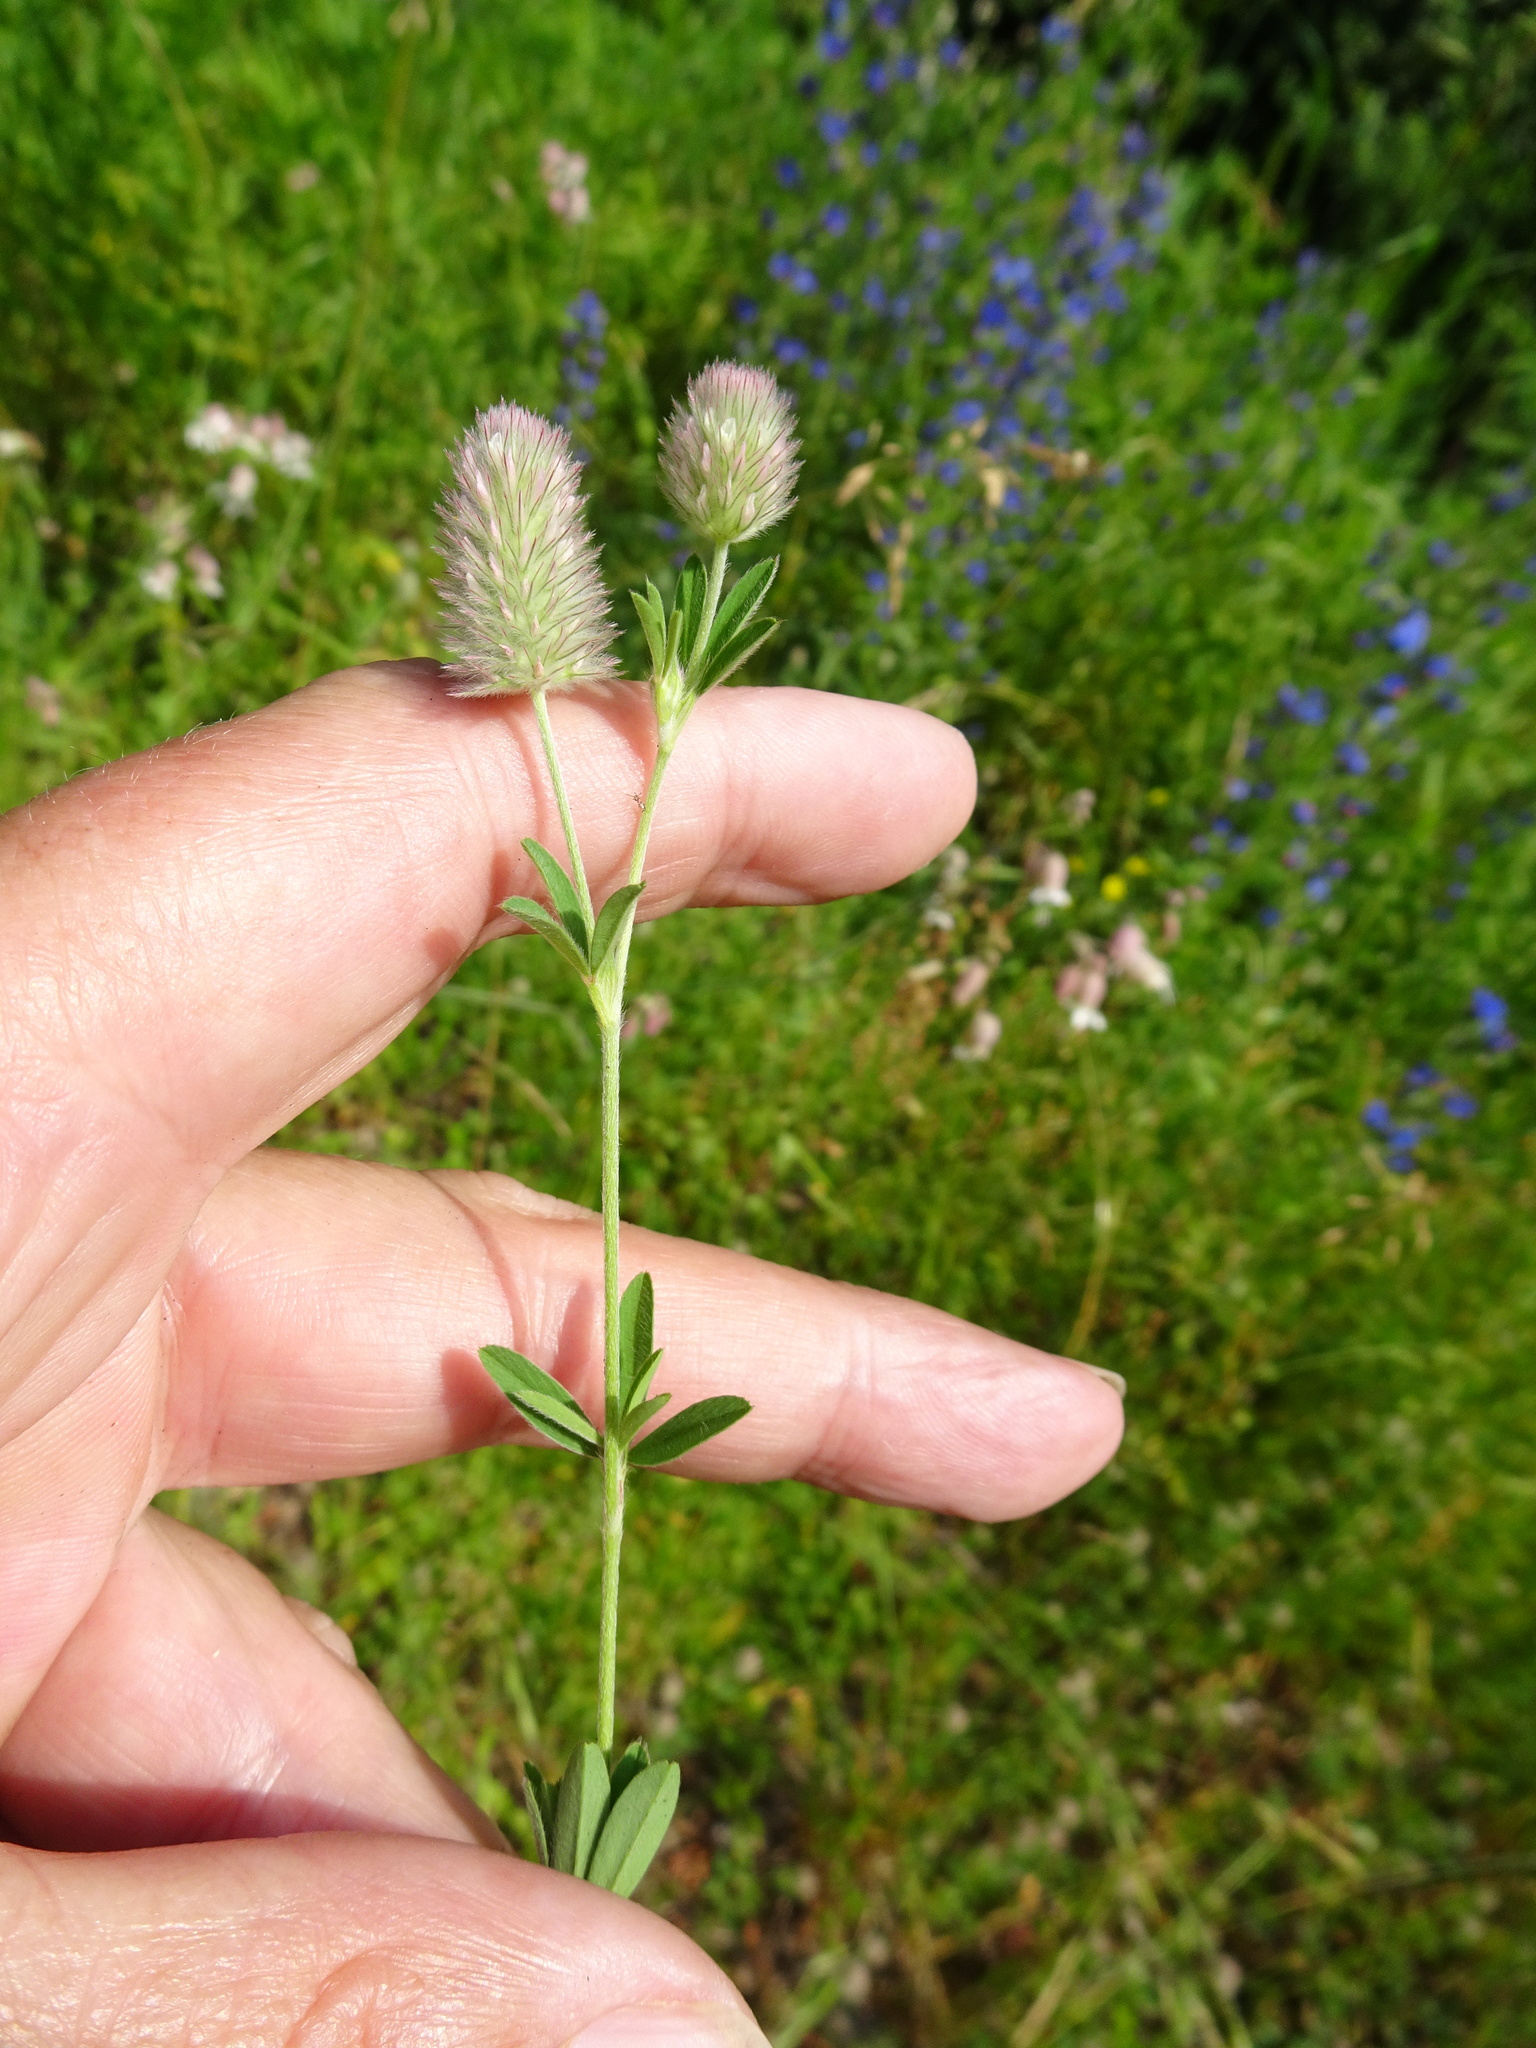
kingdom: Plantae
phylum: Tracheophyta
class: Magnoliopsida
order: Fabales
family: Fabaceae
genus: Trifolium
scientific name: Trifolium arvense
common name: Hare's-foot clover
